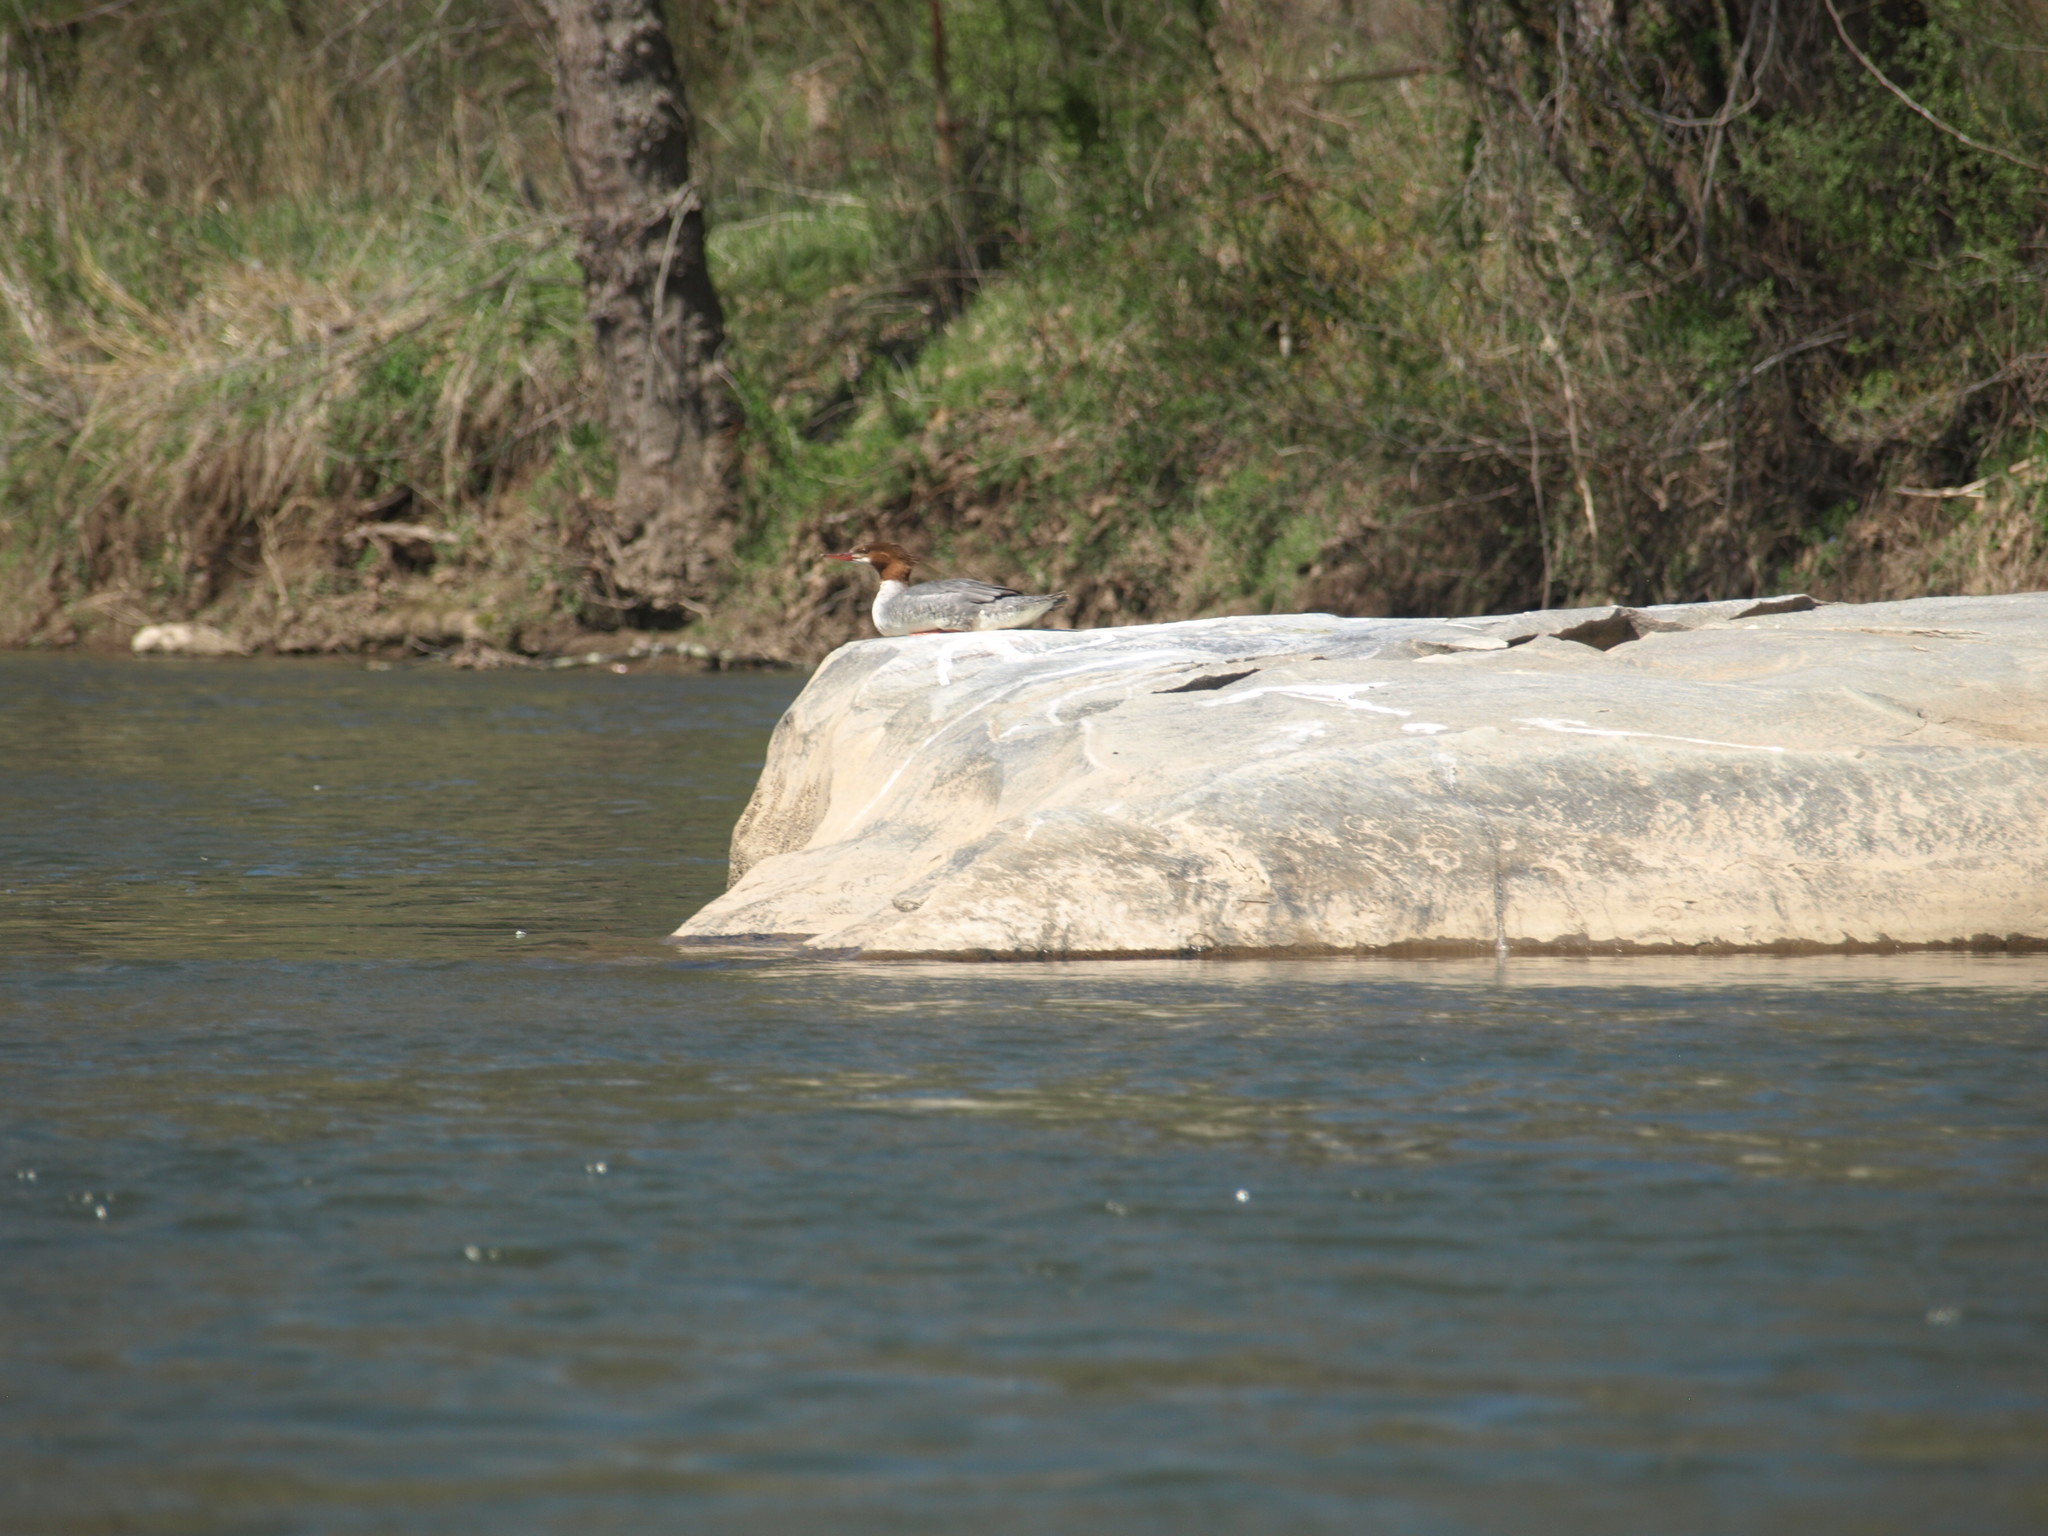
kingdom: Animalia
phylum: Chordata
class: Aves
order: Anseriformes
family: Anatidae
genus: Mergus
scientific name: Mergus merganser
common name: Common merganser
